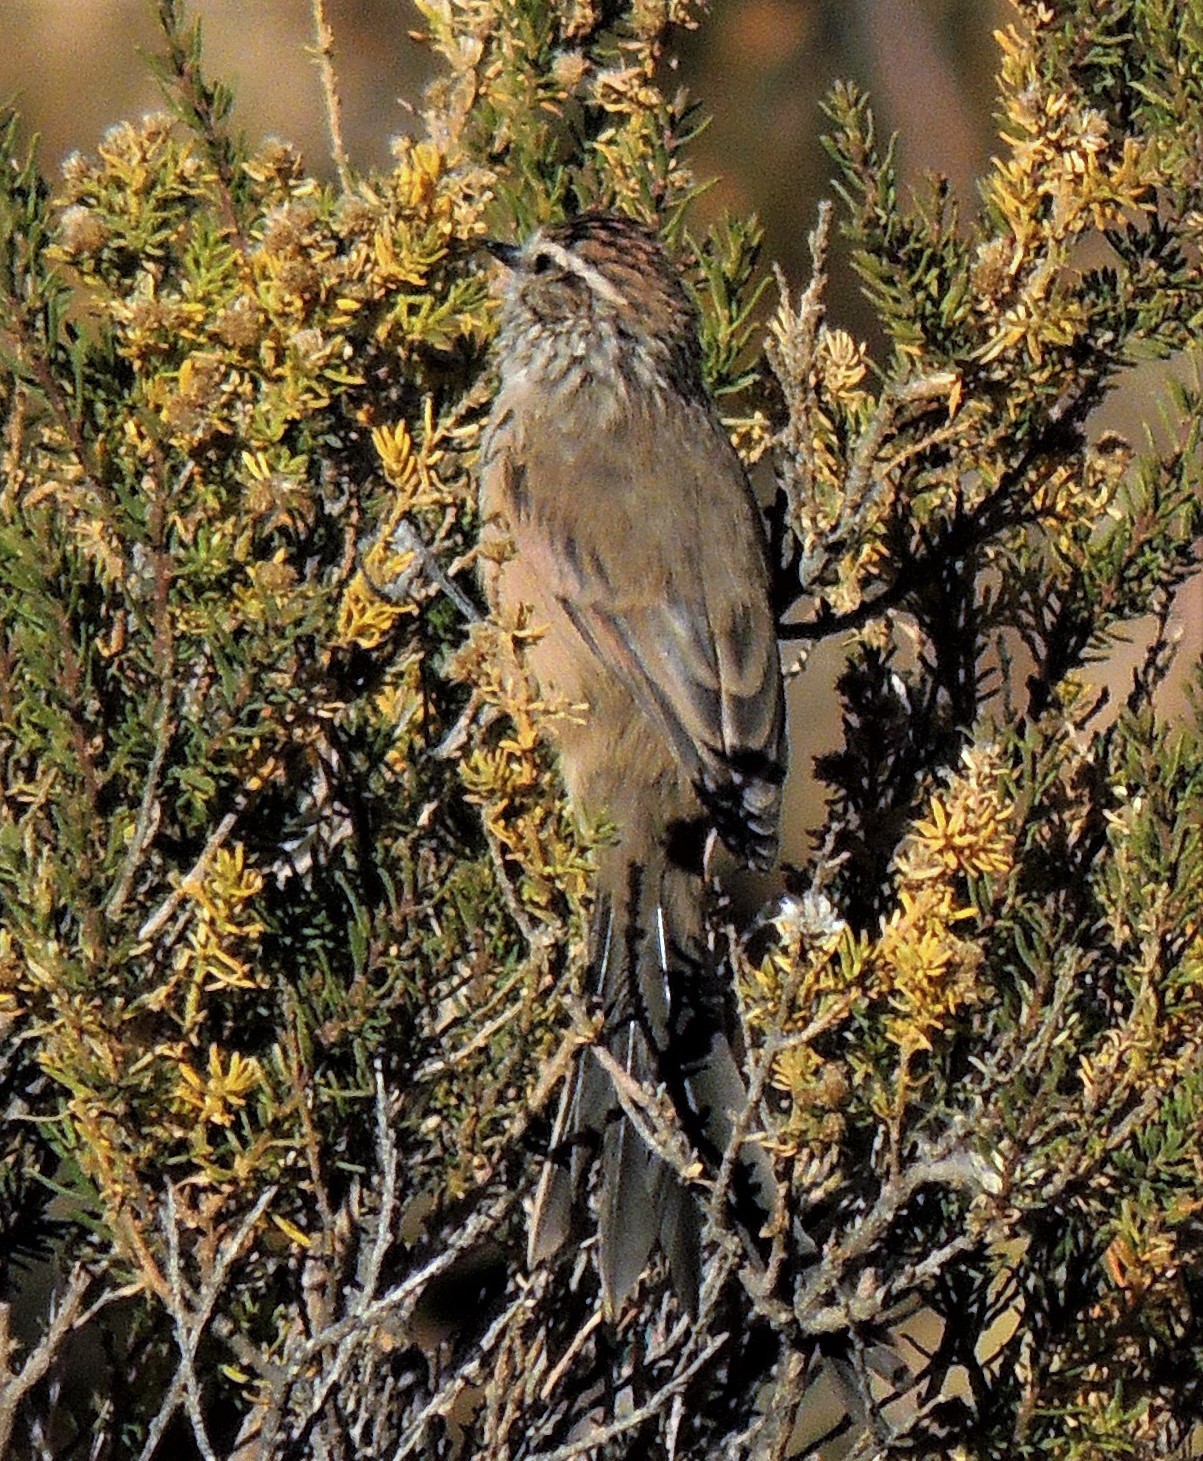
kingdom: Animalia
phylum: Chordata
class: Aves
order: Passeriformes
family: Furnariidae
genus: Leptasthenura
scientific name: Leptasthenura aegithaloides
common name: Plain-mantled tit-spinetail
